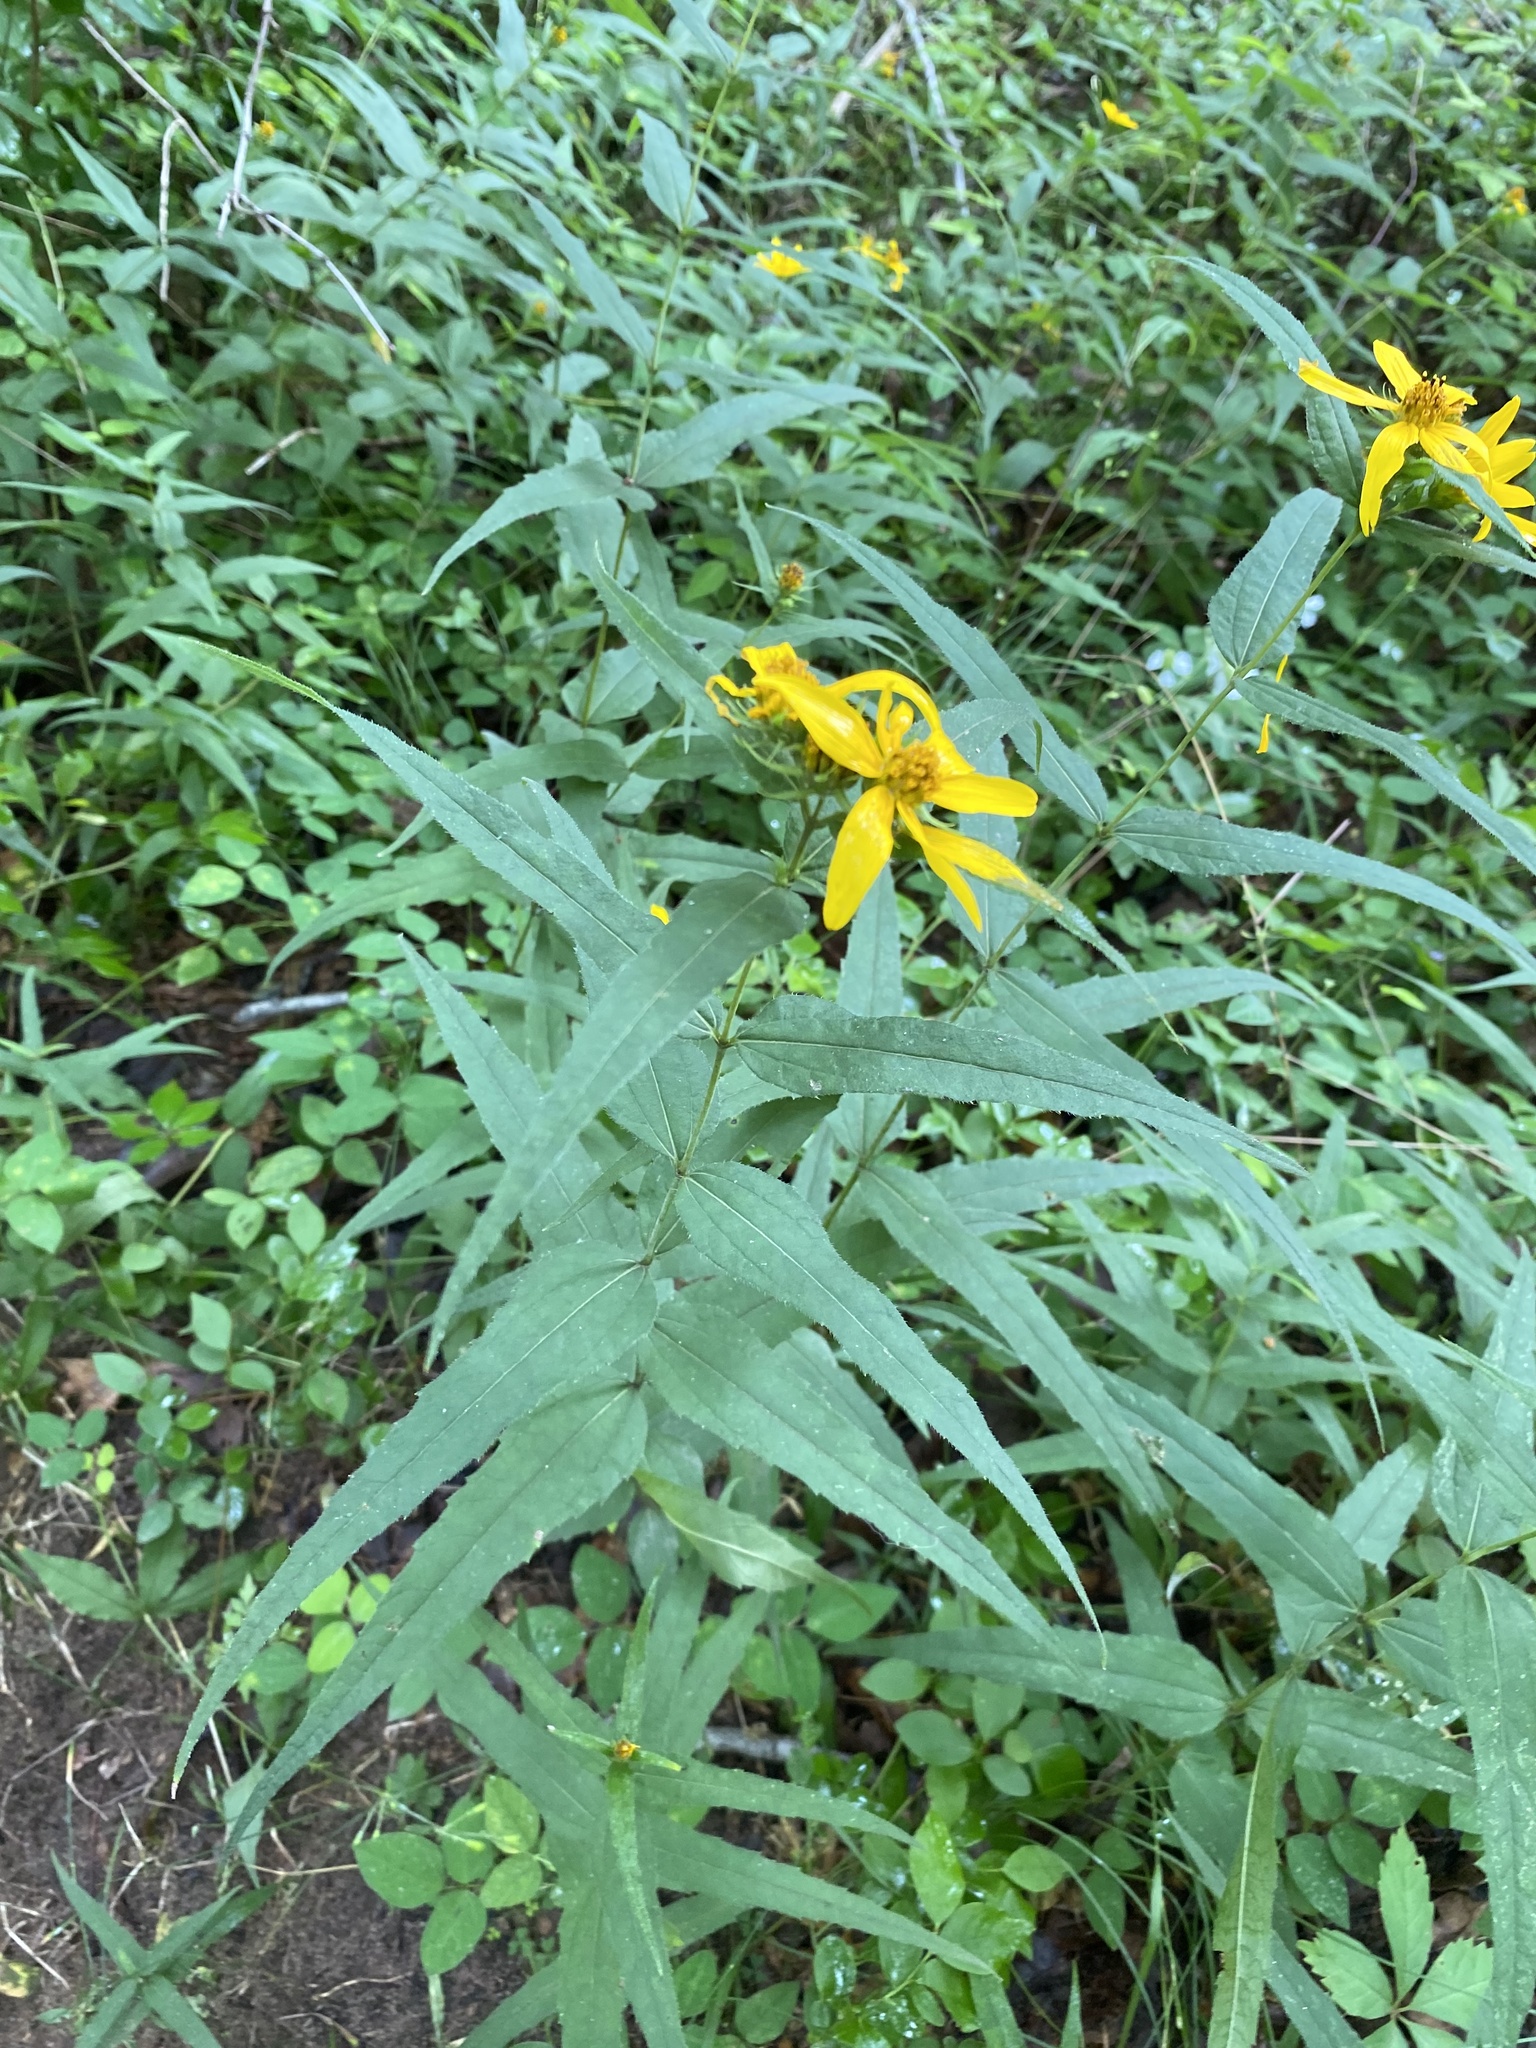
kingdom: Plantae
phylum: Tracheophyta
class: Magnoliopsida
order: Asterales
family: Asteraceae
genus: Helianthus
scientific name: Helianthus divaricatus
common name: Divergent sunflower
